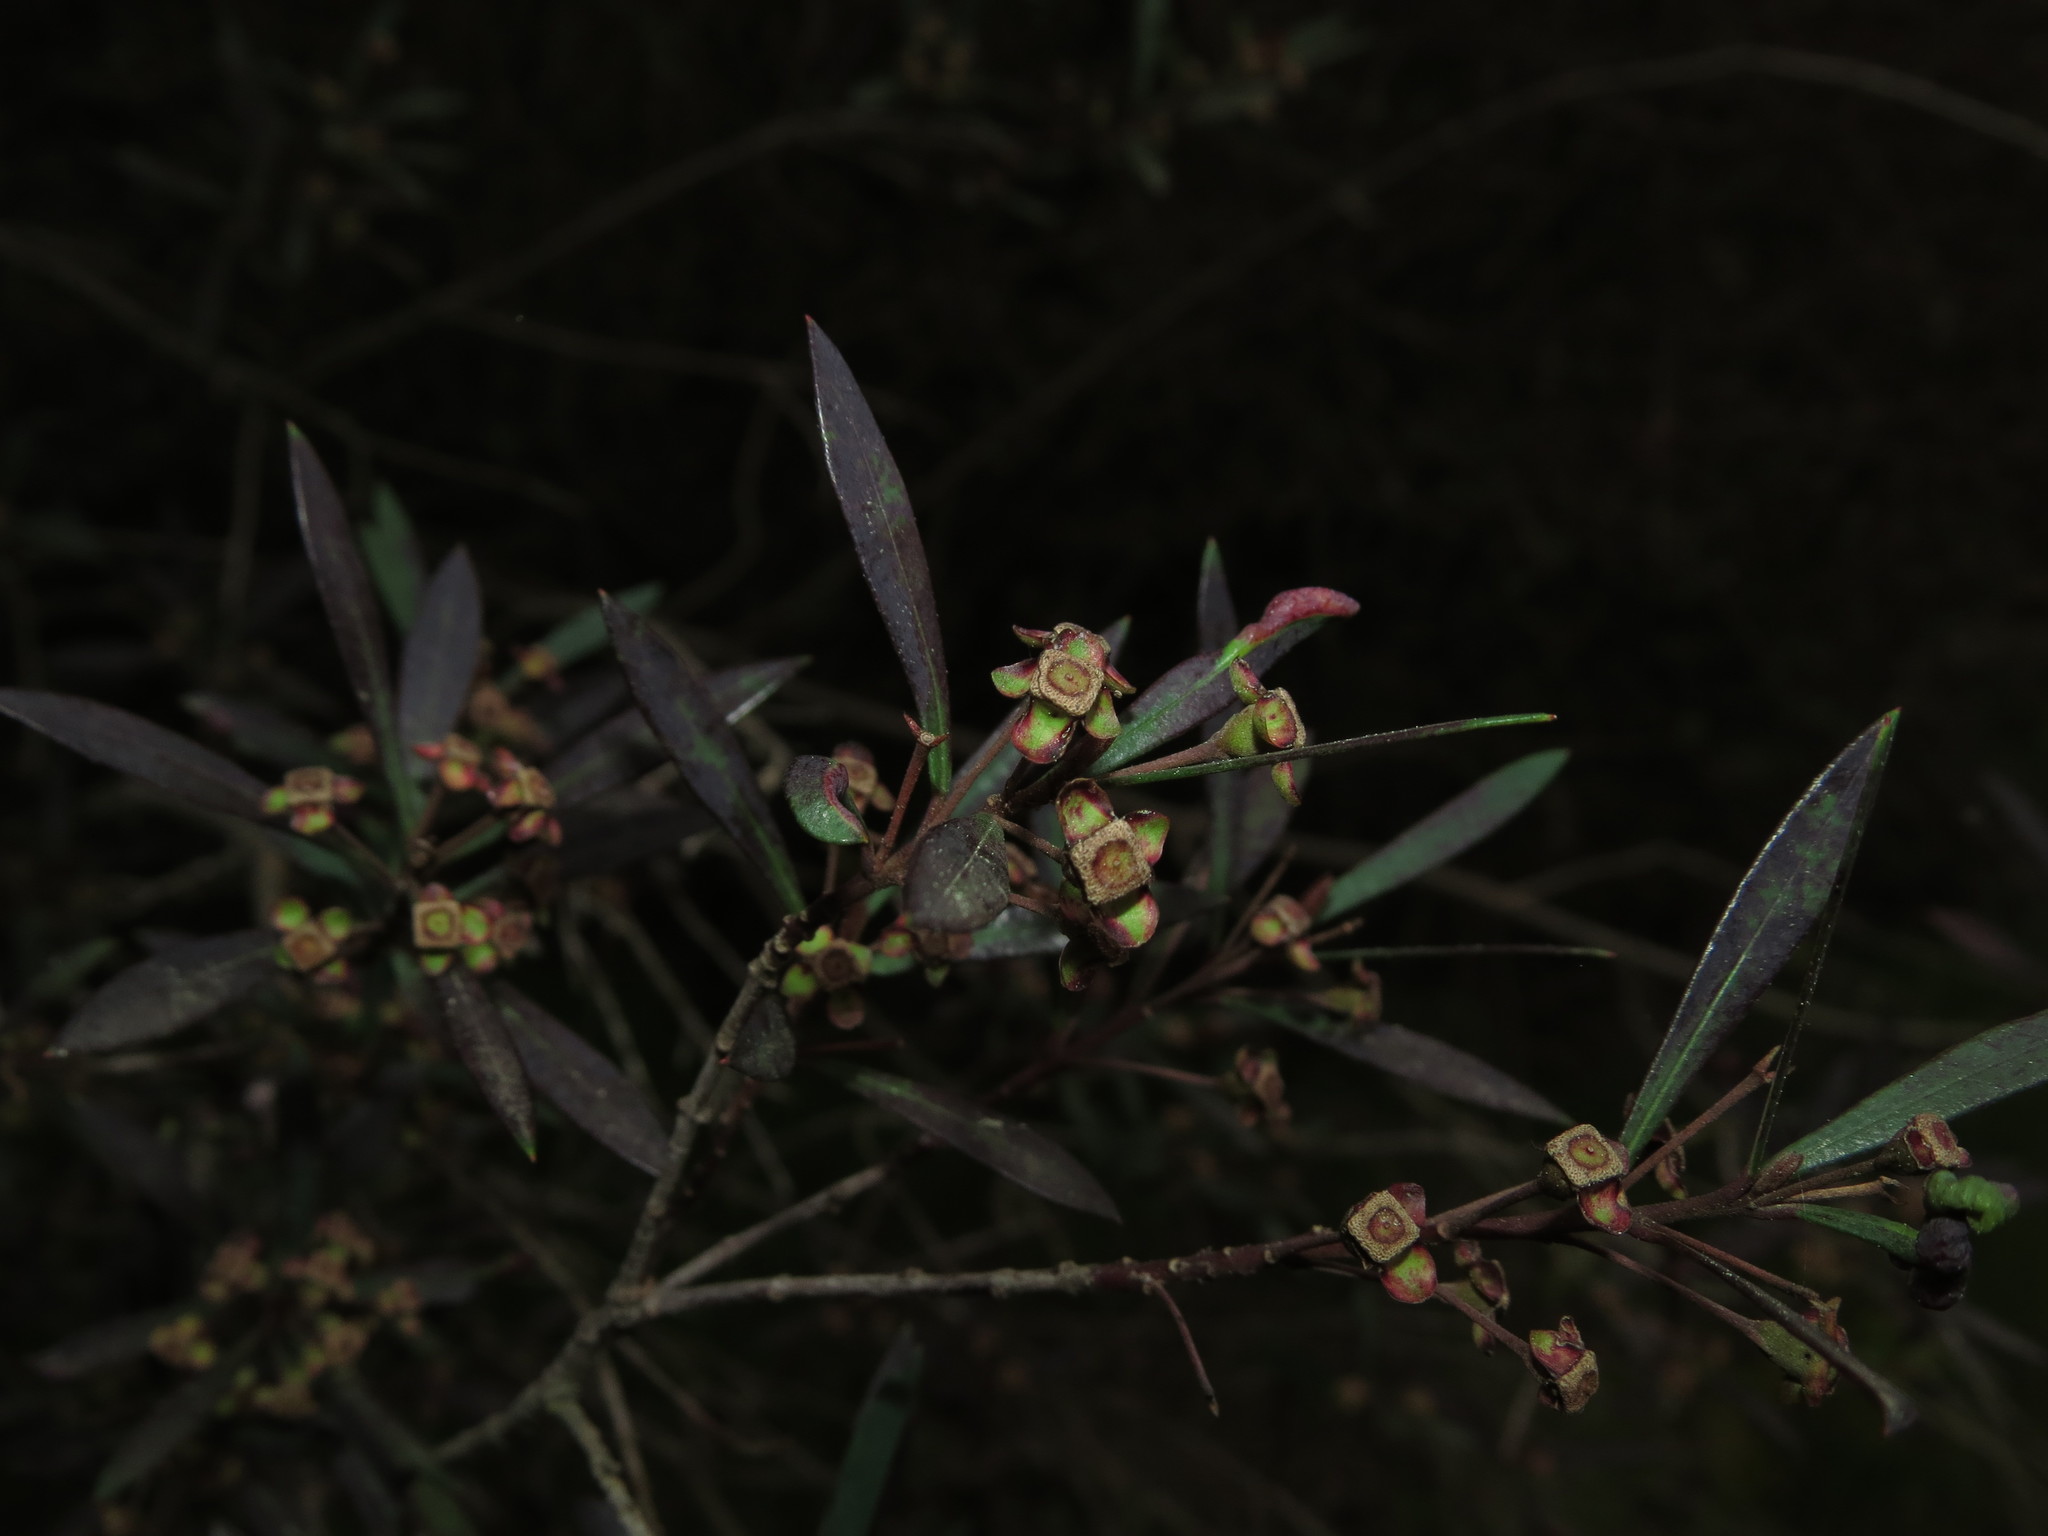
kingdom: Plantae
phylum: Tracheophyta
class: Magnoliopsida
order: Myrtales
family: Myrtaceae
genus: Myrceugenia
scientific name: Myrceugenia lanceolata
